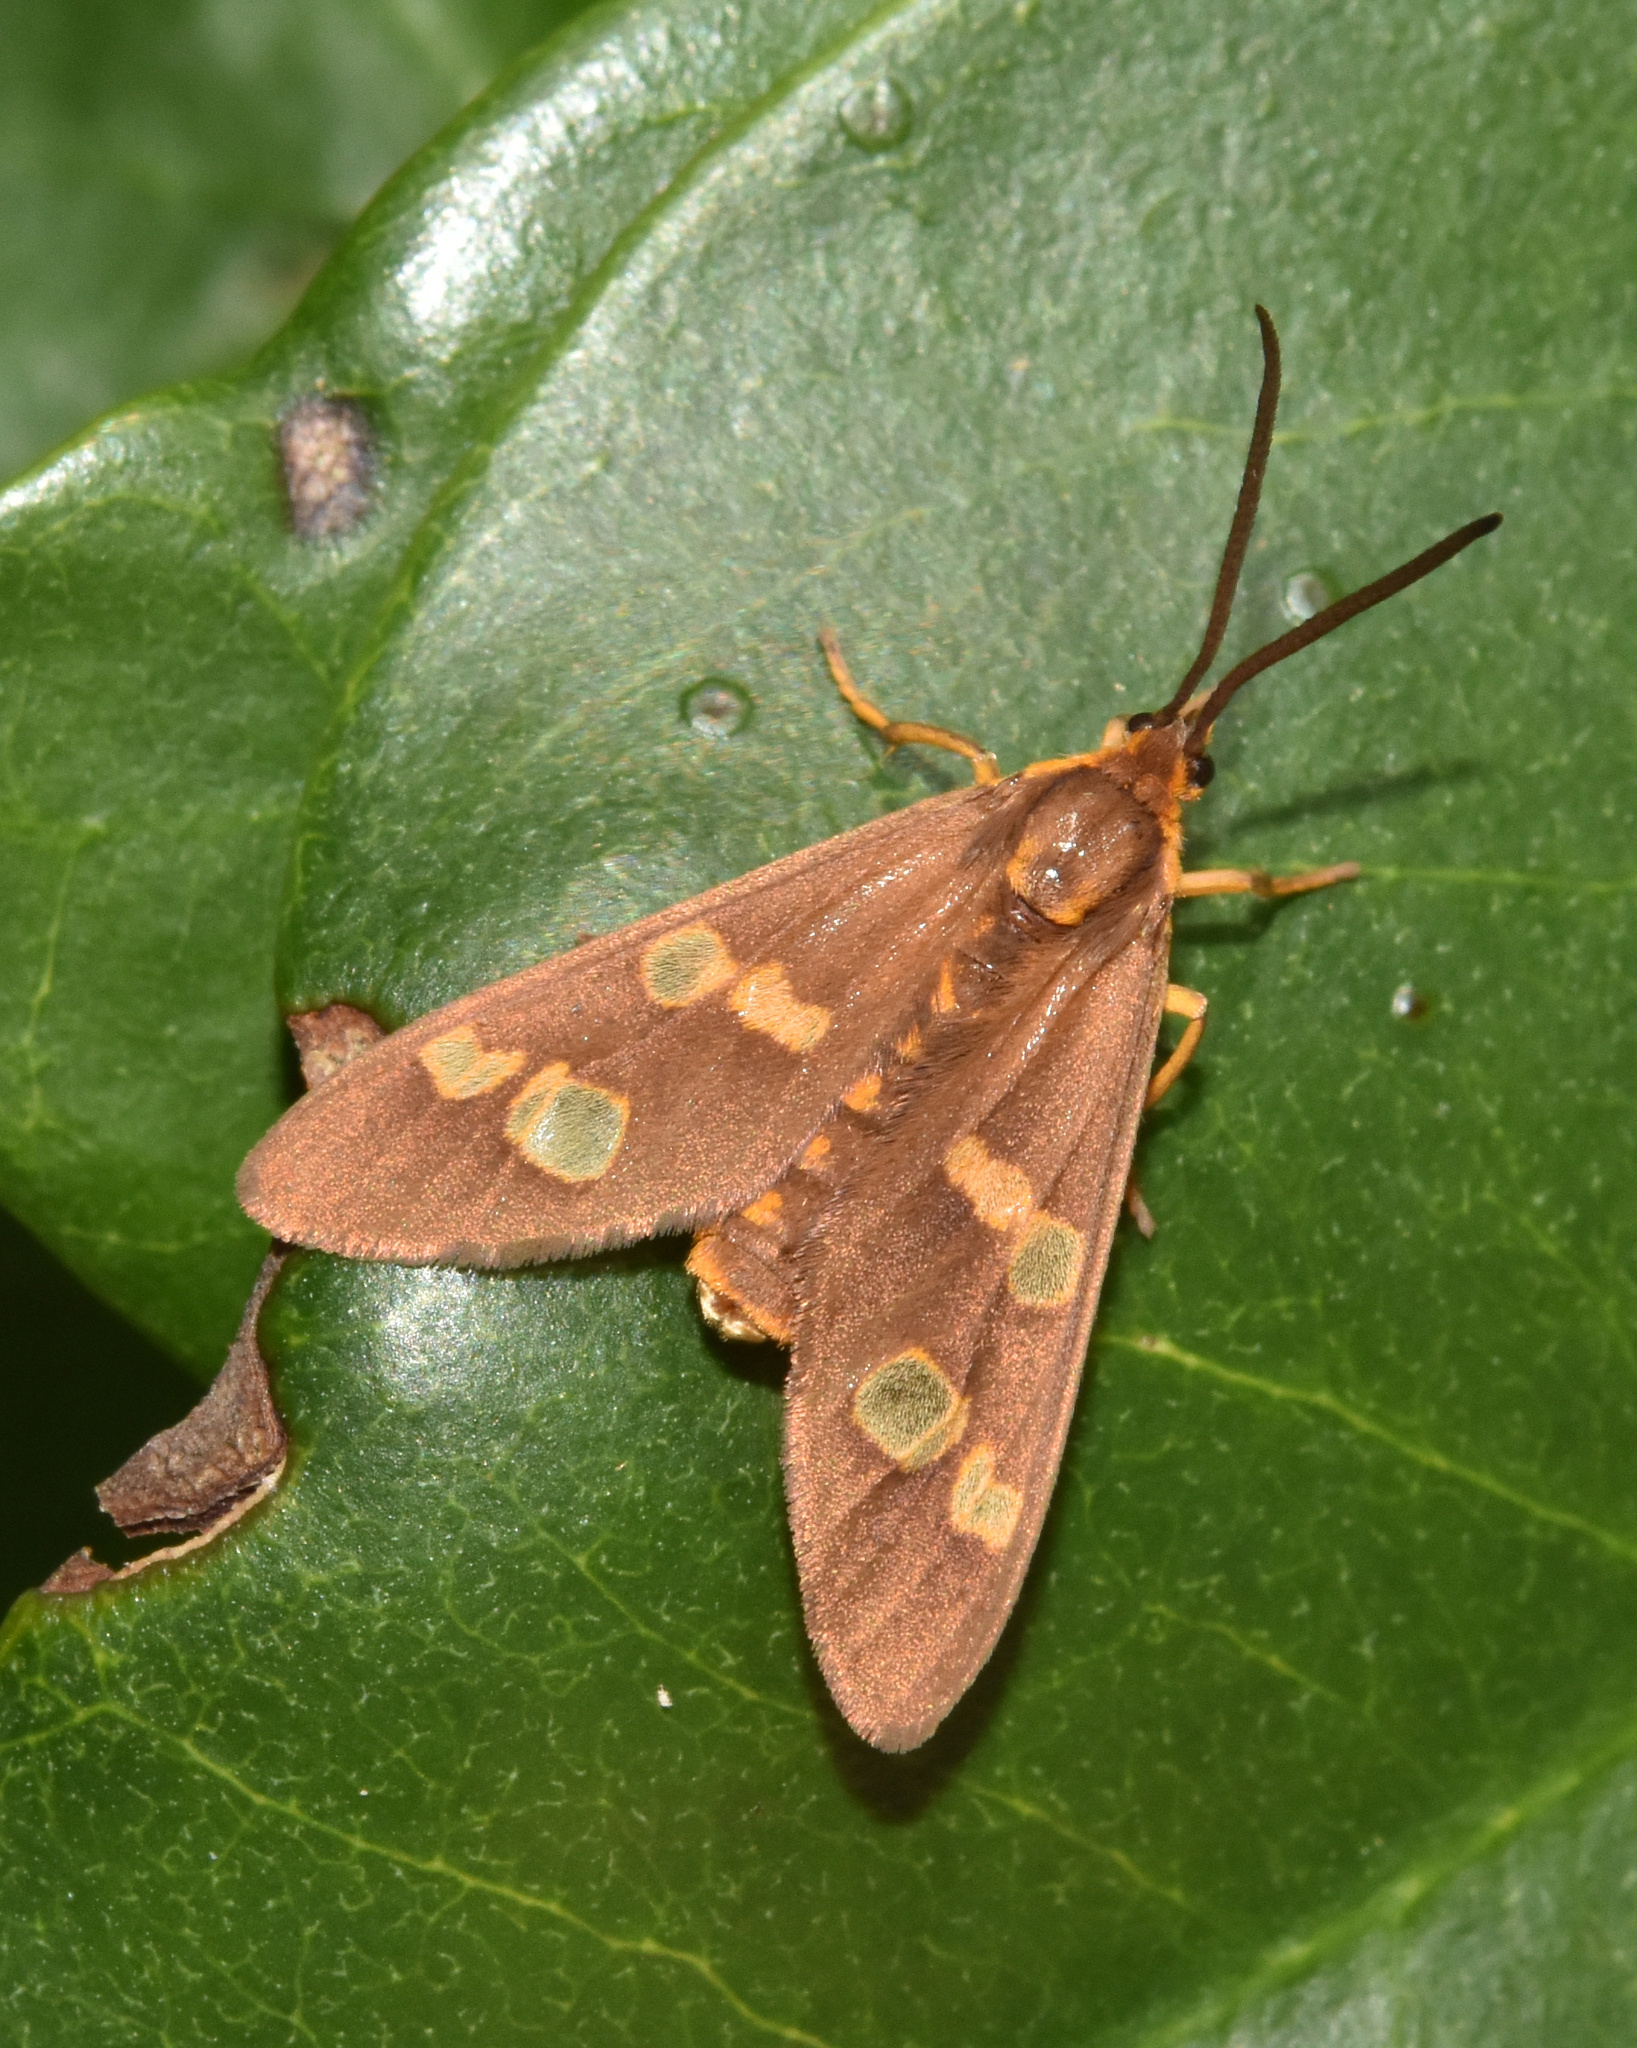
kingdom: Animalia
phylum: Arthropoda
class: Insecta
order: Lepidoptera
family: Erebidae
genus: Pseudonaclia
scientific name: Pseudonaclia puella
